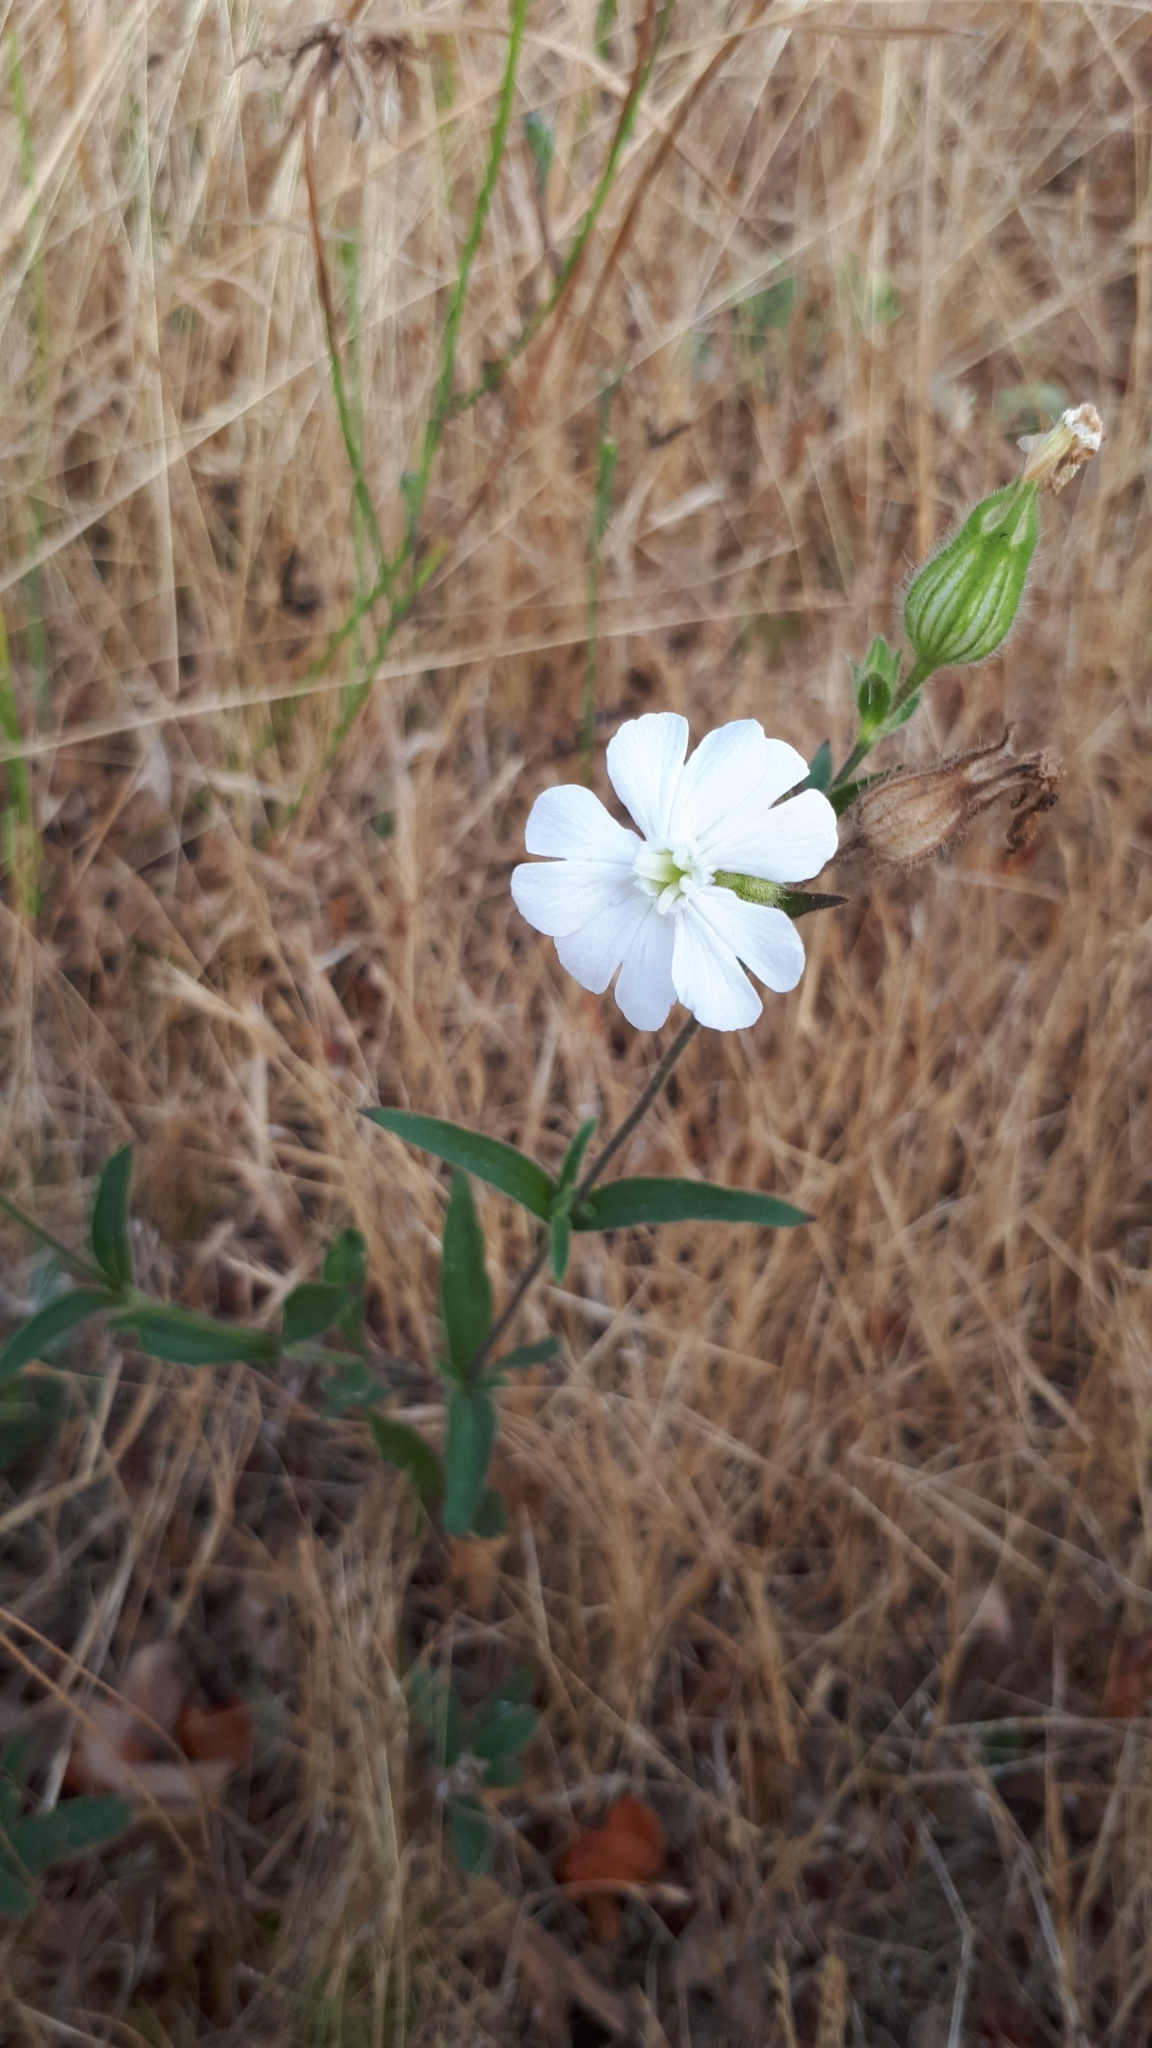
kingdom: Plantae
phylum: Tracheophyta
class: Magnoliopsida
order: Caryophyllales
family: Caryophyllaceae
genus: Silene
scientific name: Silene latifolia
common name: White campion
